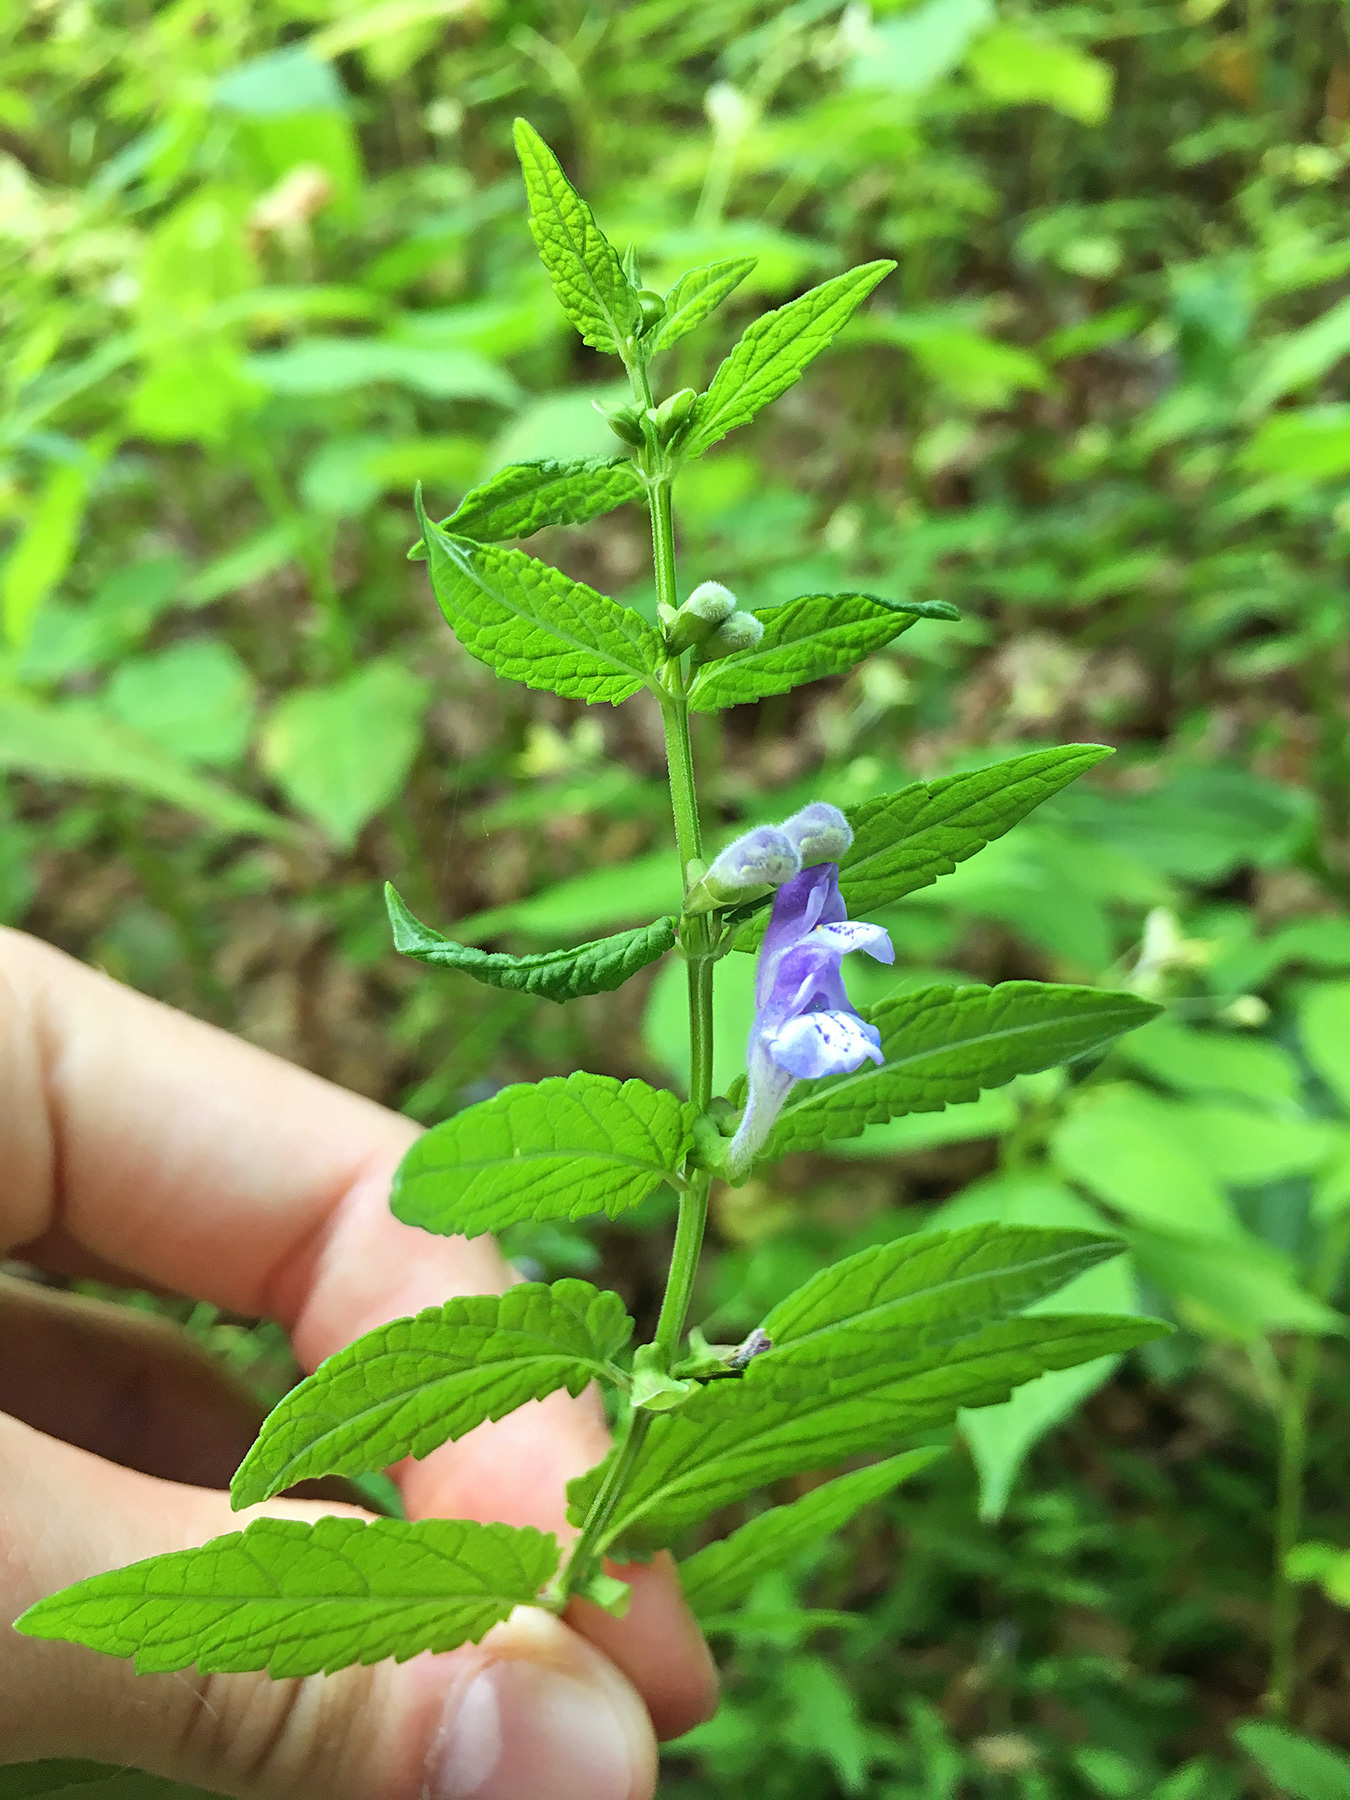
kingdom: Plantae
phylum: Tracheophyta
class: Magnoliopsida
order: Lamiales
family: Lamiaceae
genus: Scutellaria
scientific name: Scutellaria galericulata
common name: Skullcap
